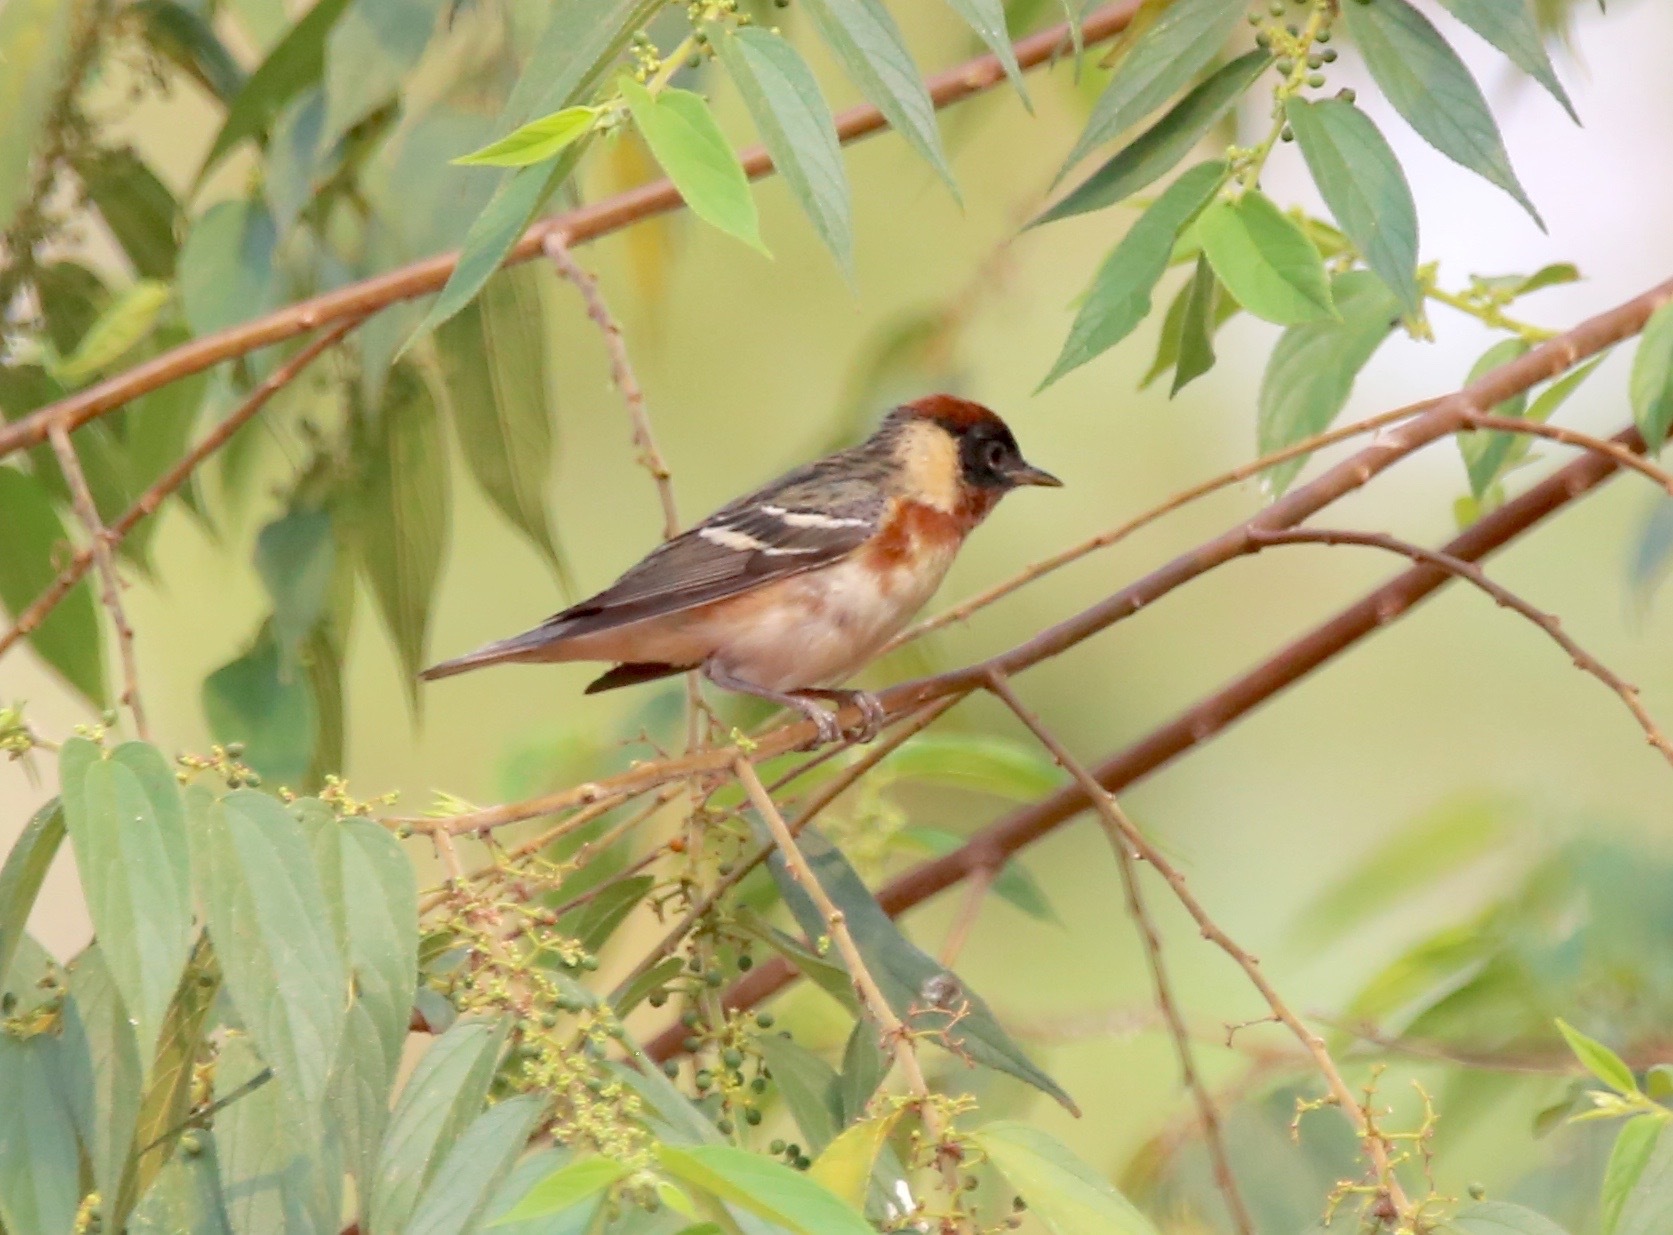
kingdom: Animalia
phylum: Chordata
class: Aves
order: Passeriformes
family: Parulidae
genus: Setophaga
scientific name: Setophaga castanea
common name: Bay-breasted warbler
